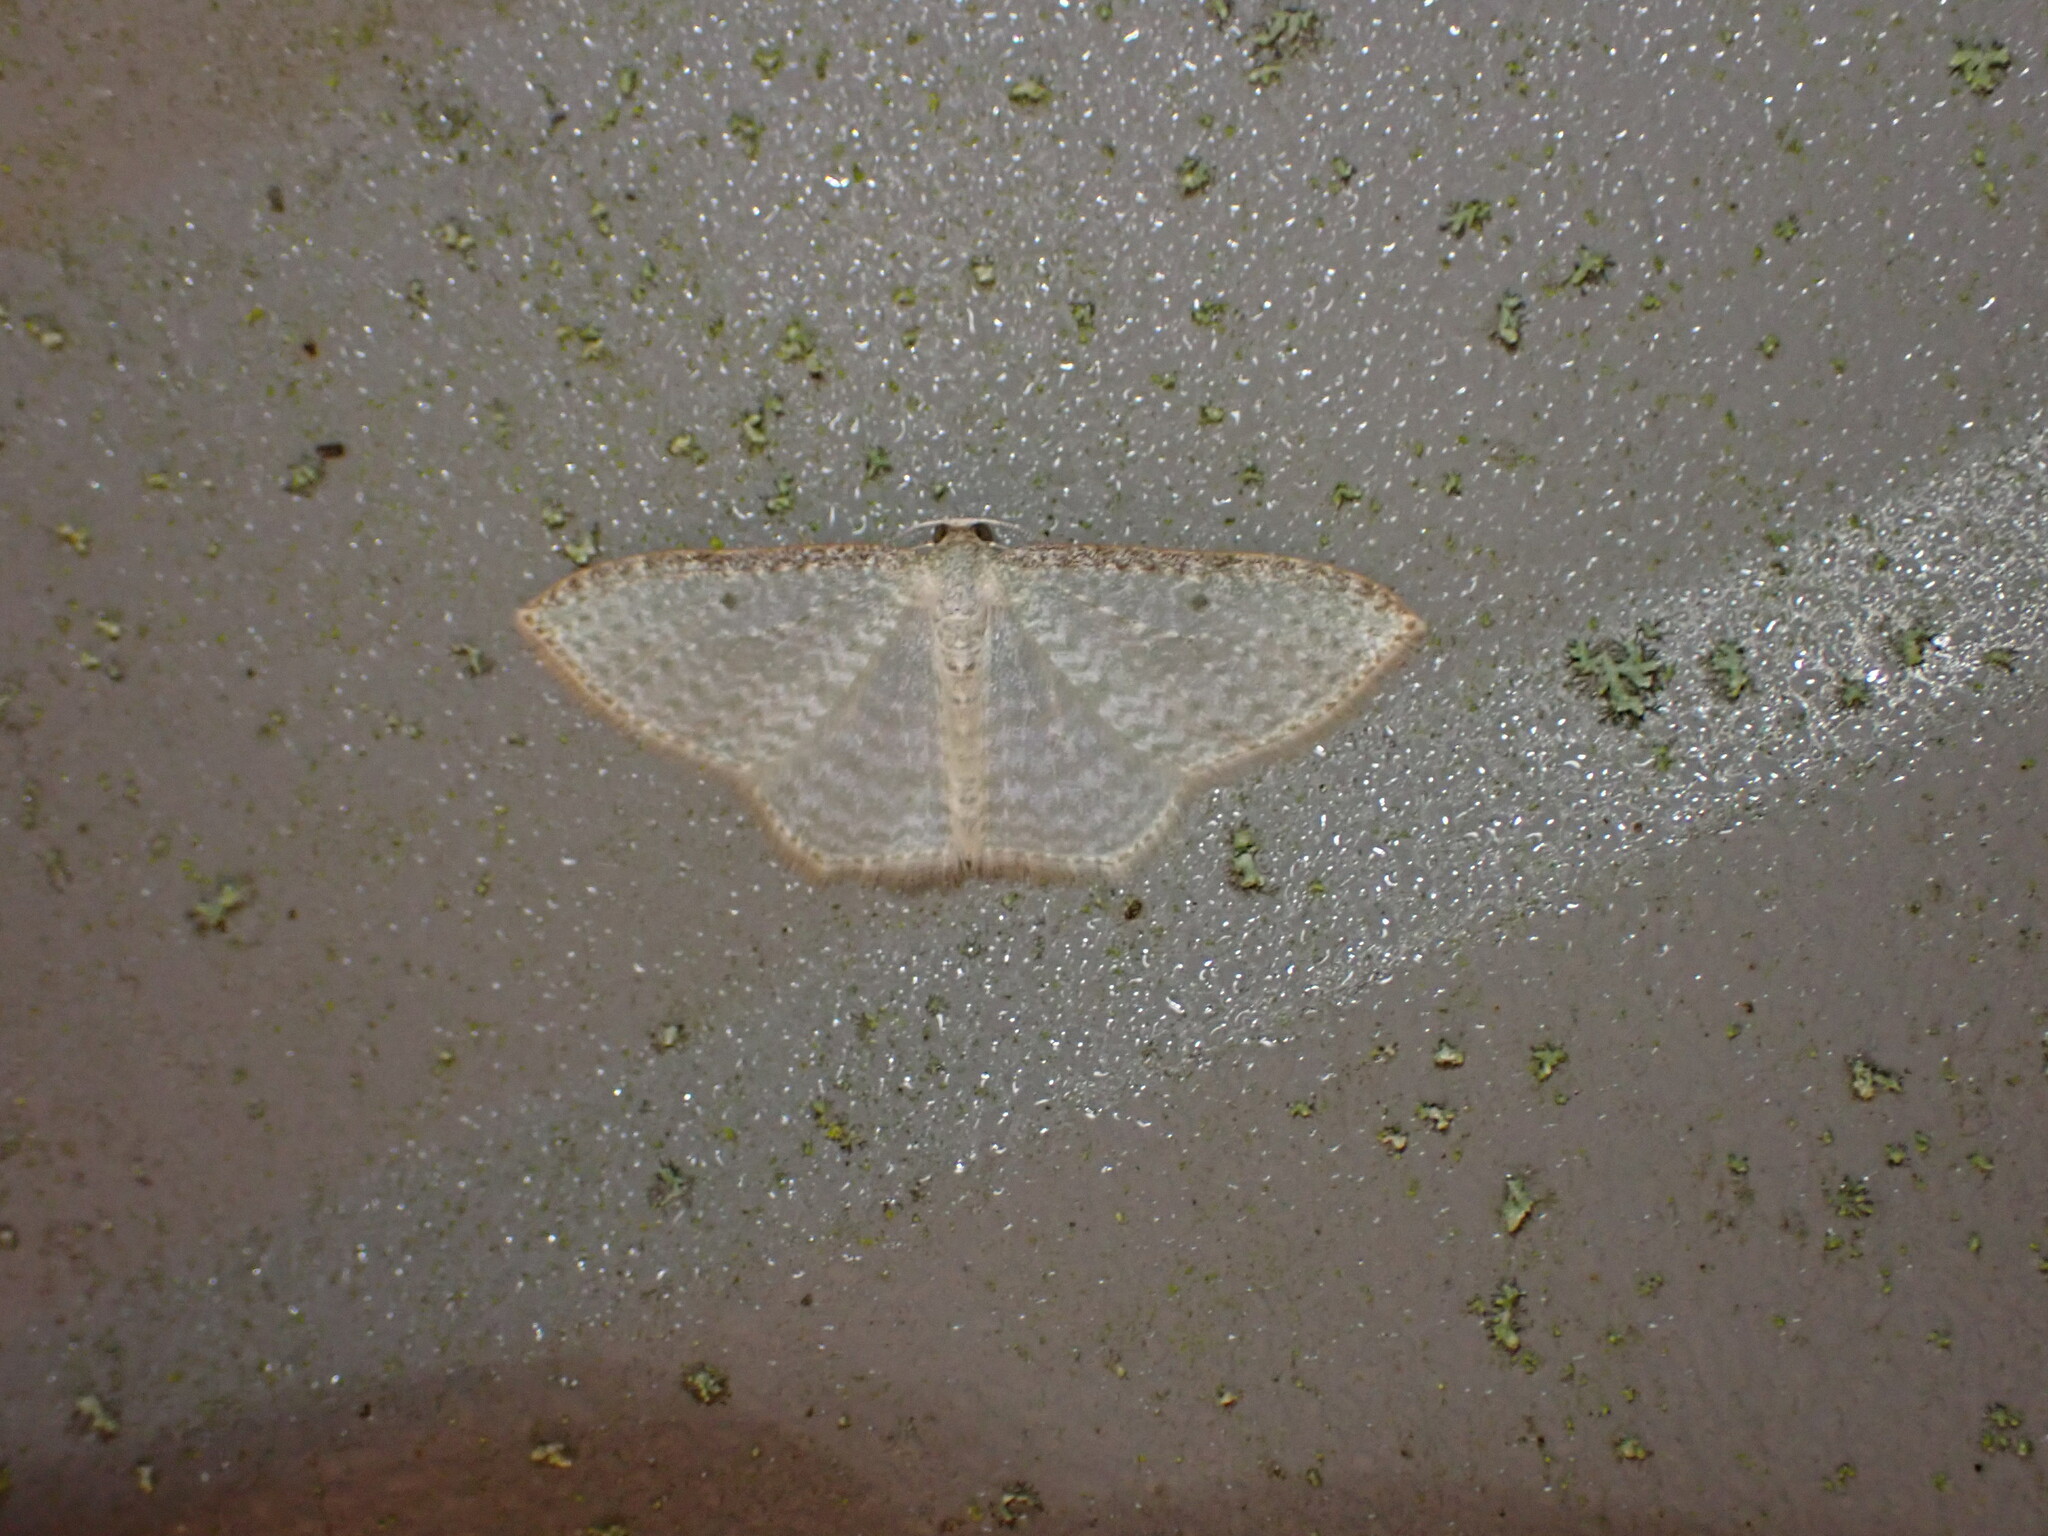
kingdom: Animalia
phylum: Arthropoda
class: Insecta
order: Lepidoptera
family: Geometridae
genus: Poecilasthena
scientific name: Poecilasthena pulchraria
